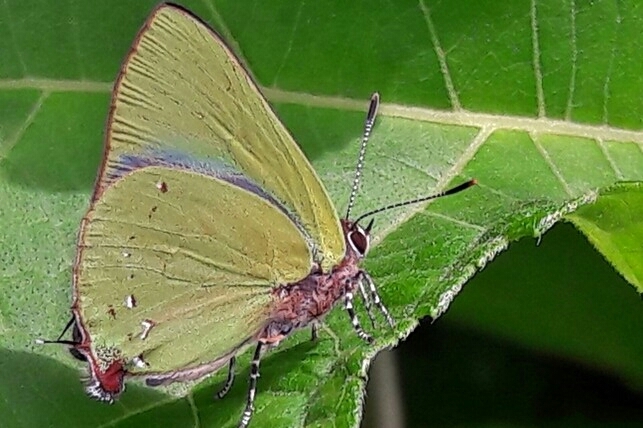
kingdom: Animalia
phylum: Arthropoda
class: Insecta
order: Lepidoptera
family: Lycaenidae
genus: Thecla
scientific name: Thecla herodotus
